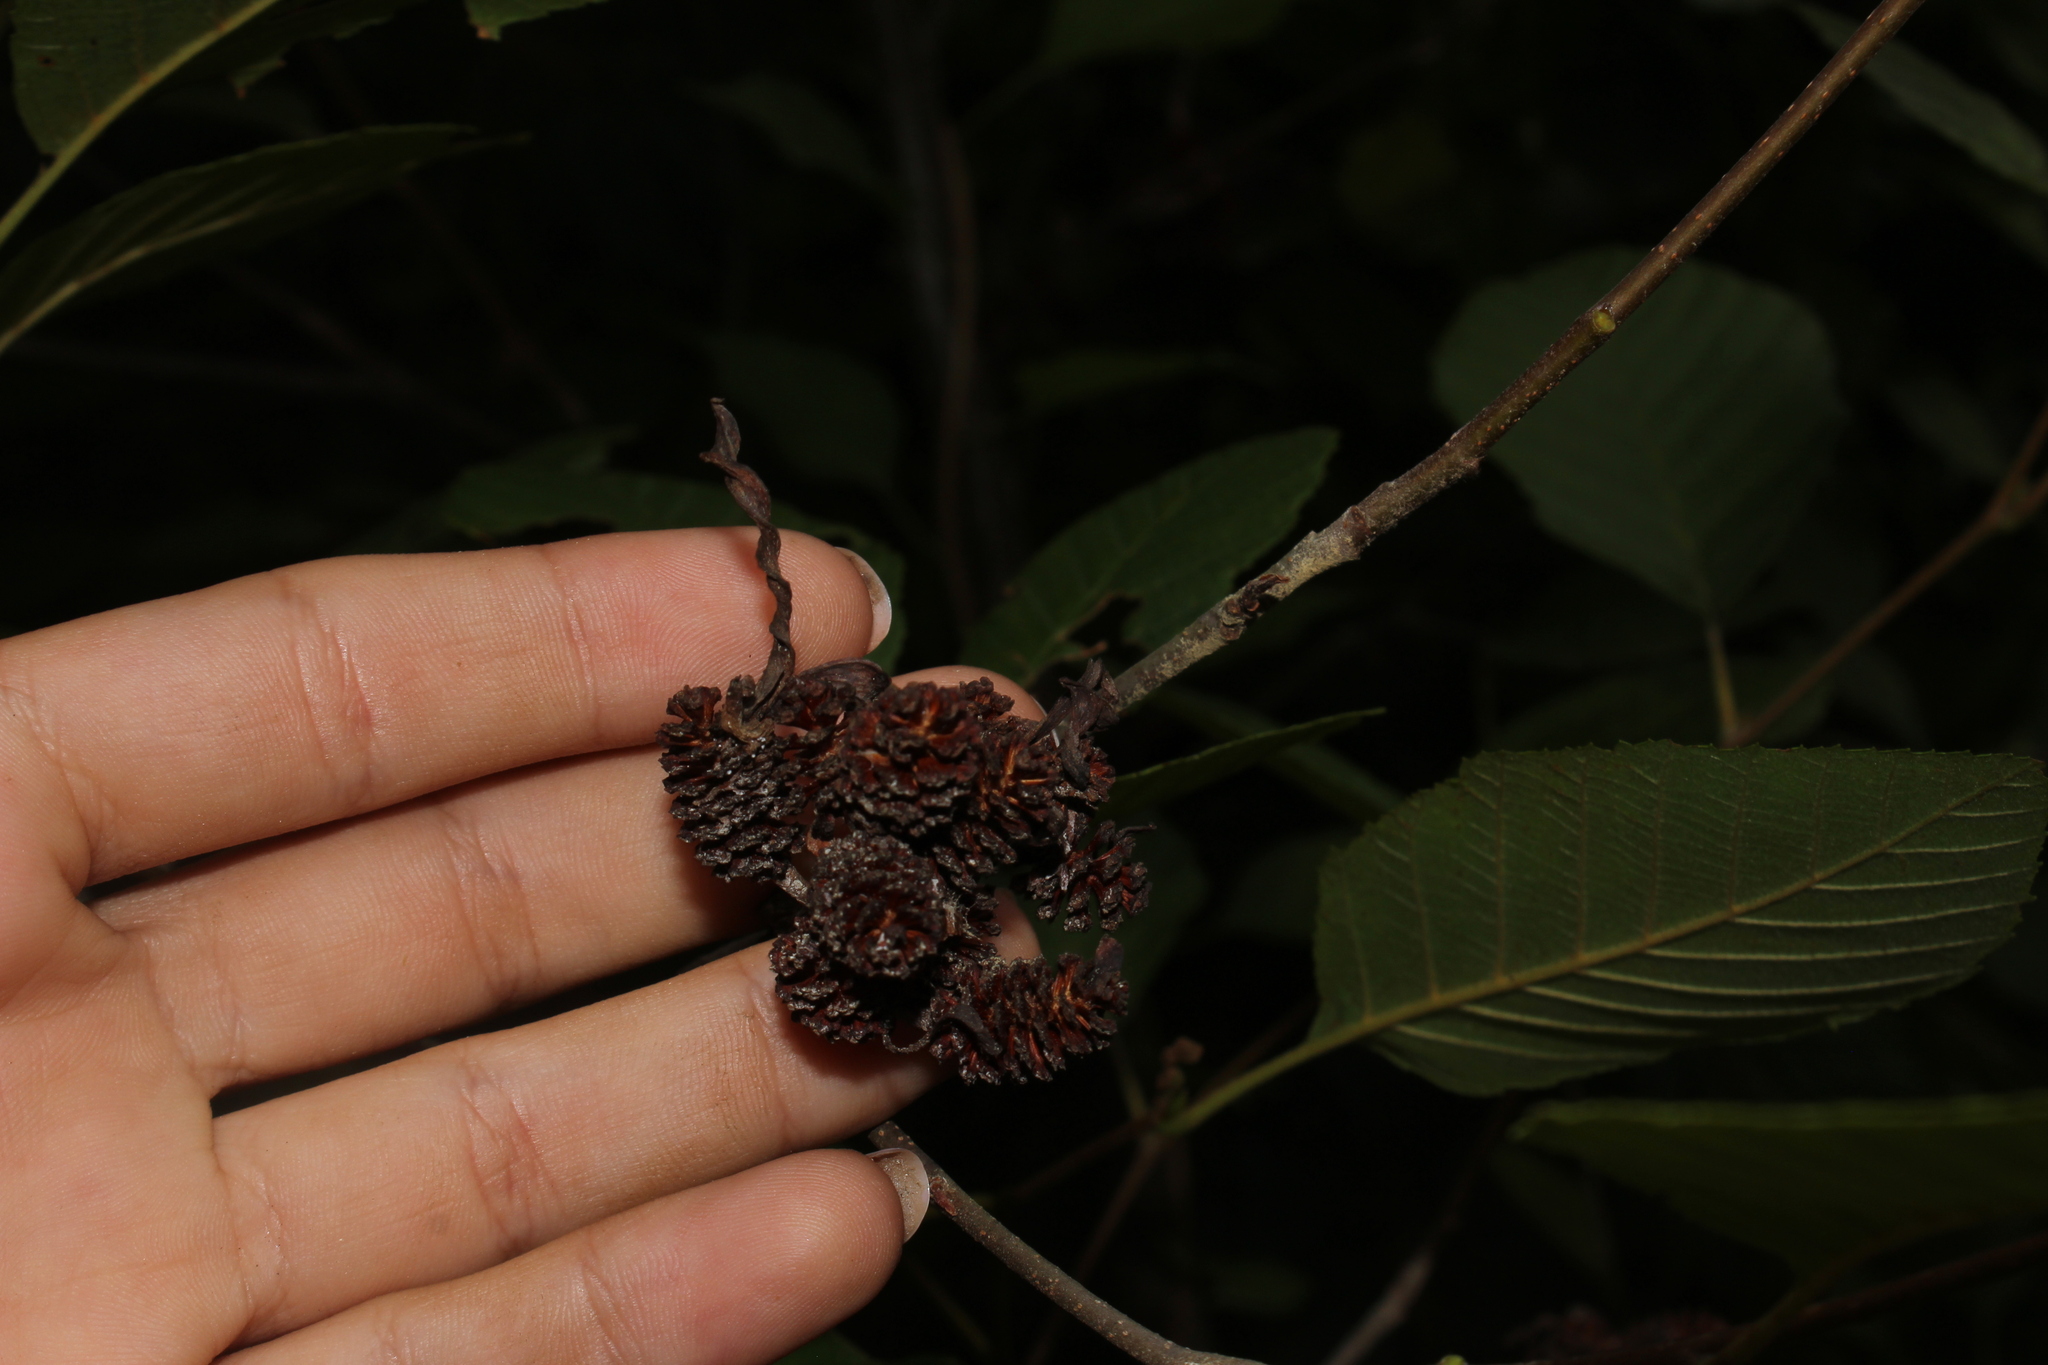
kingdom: Fungi
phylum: Ascomycota
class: Taphrinomycetes
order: Taphrinales
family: Taphrinaceae
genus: Taphrina
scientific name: Taphrina robinsoniana
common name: Eastern american alder tongue gall fungus
